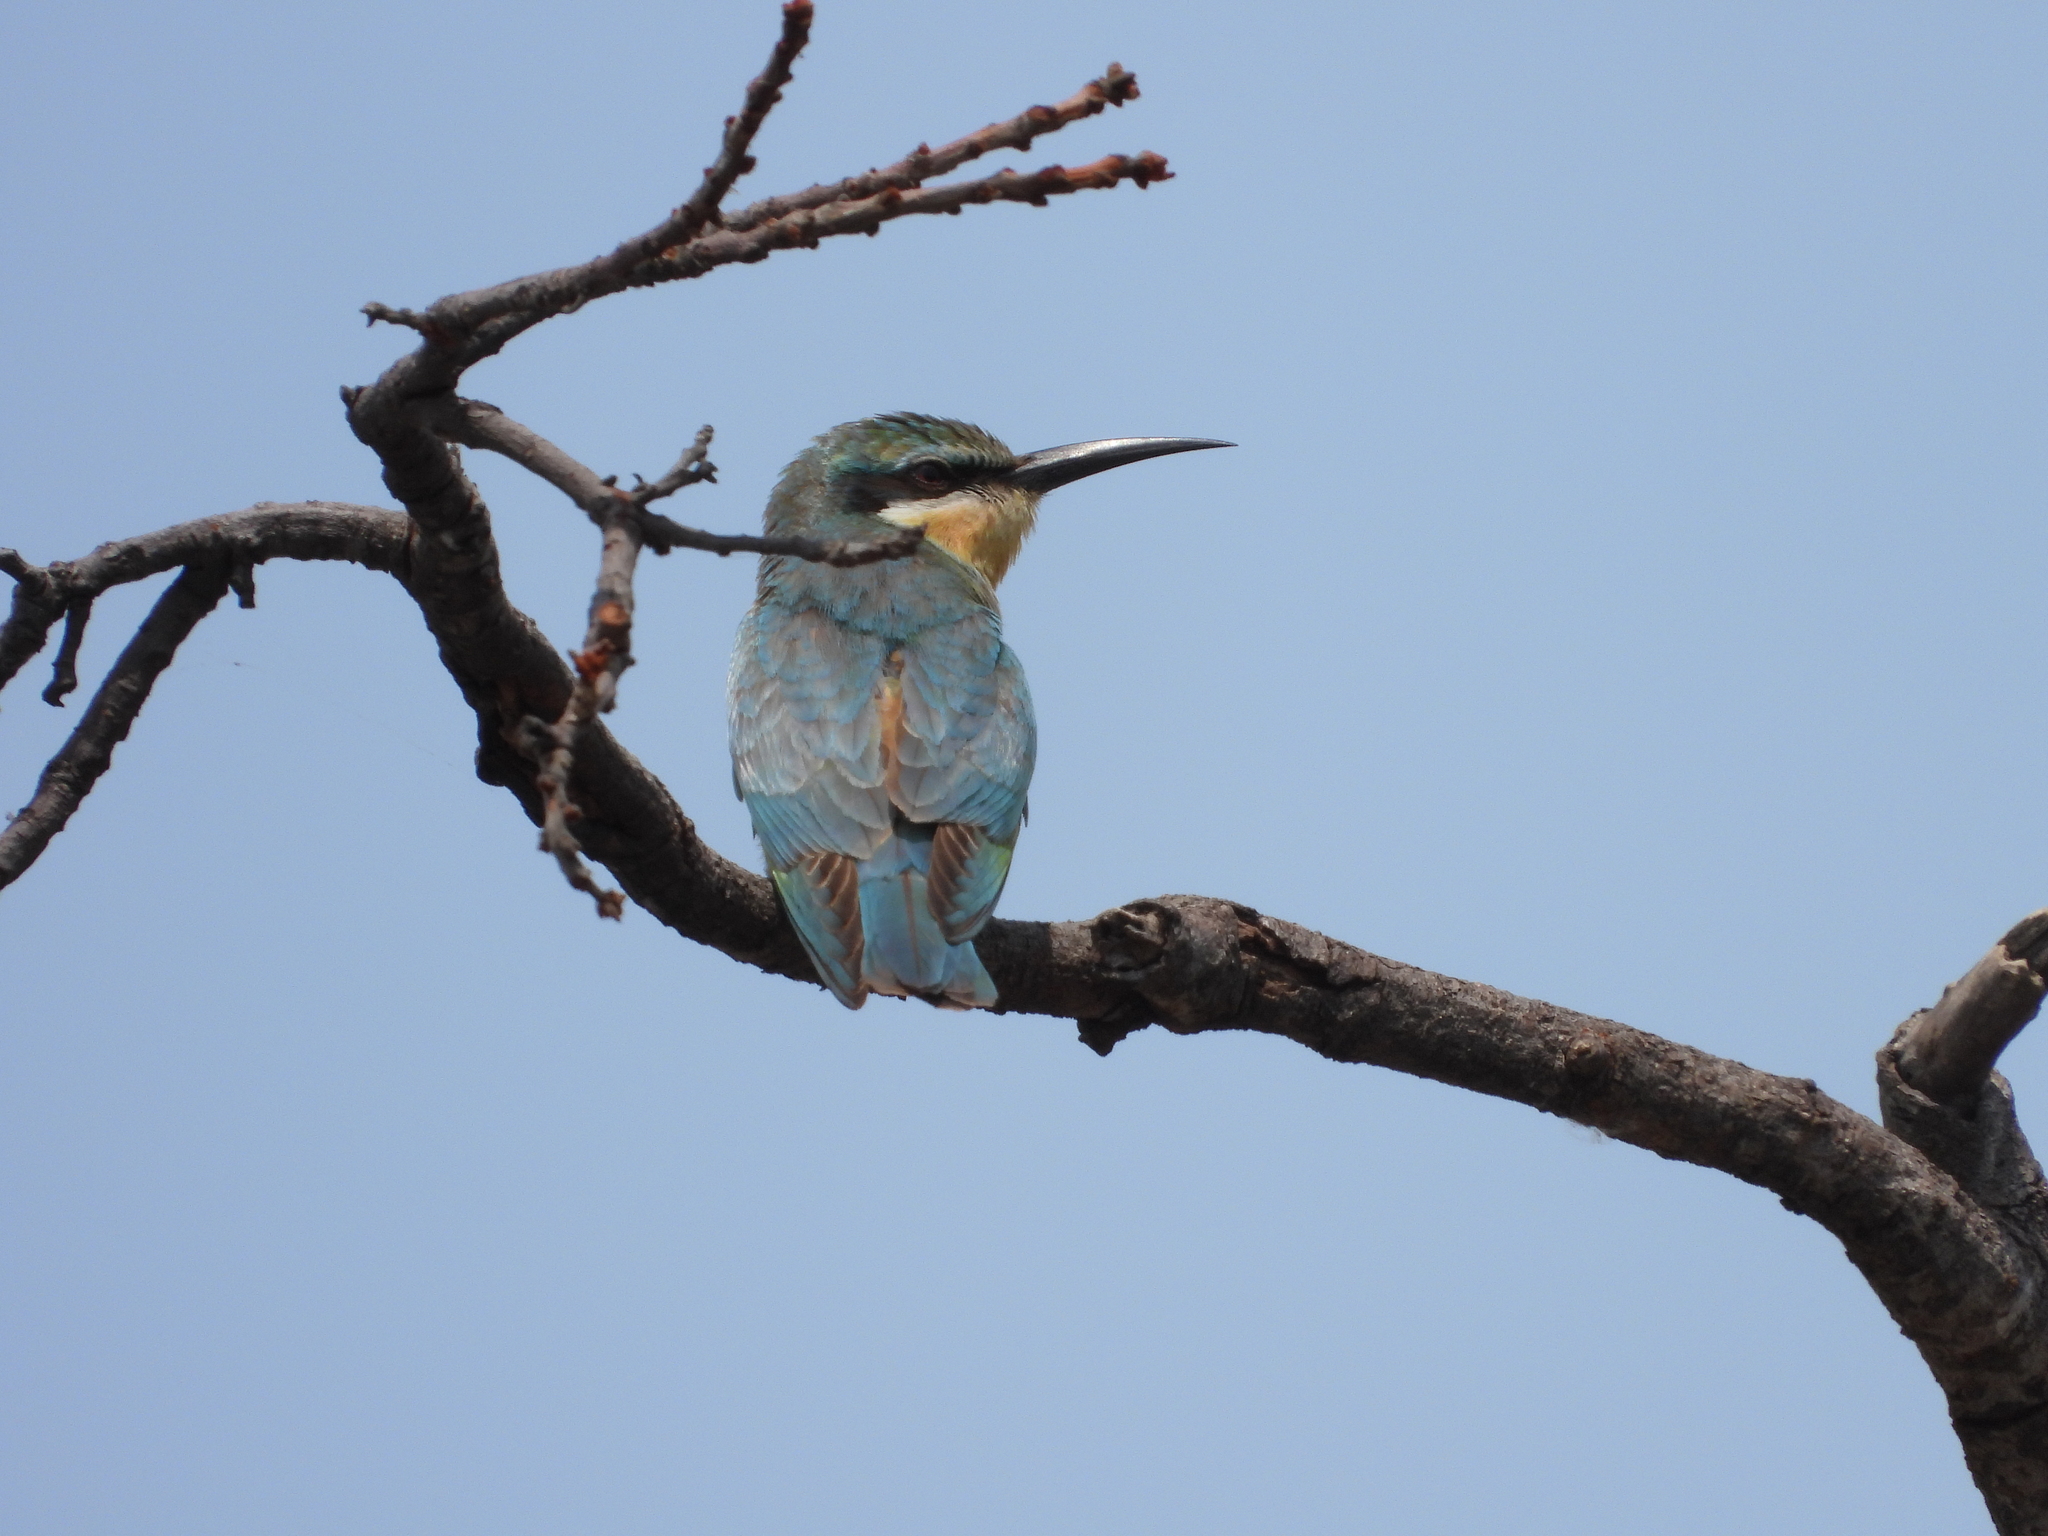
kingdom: Animalia
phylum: Chordata
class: Aves
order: Coraciiformes
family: Meropidae
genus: Merops
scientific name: Merops persicus
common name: Blue-cheeked bee-eater
